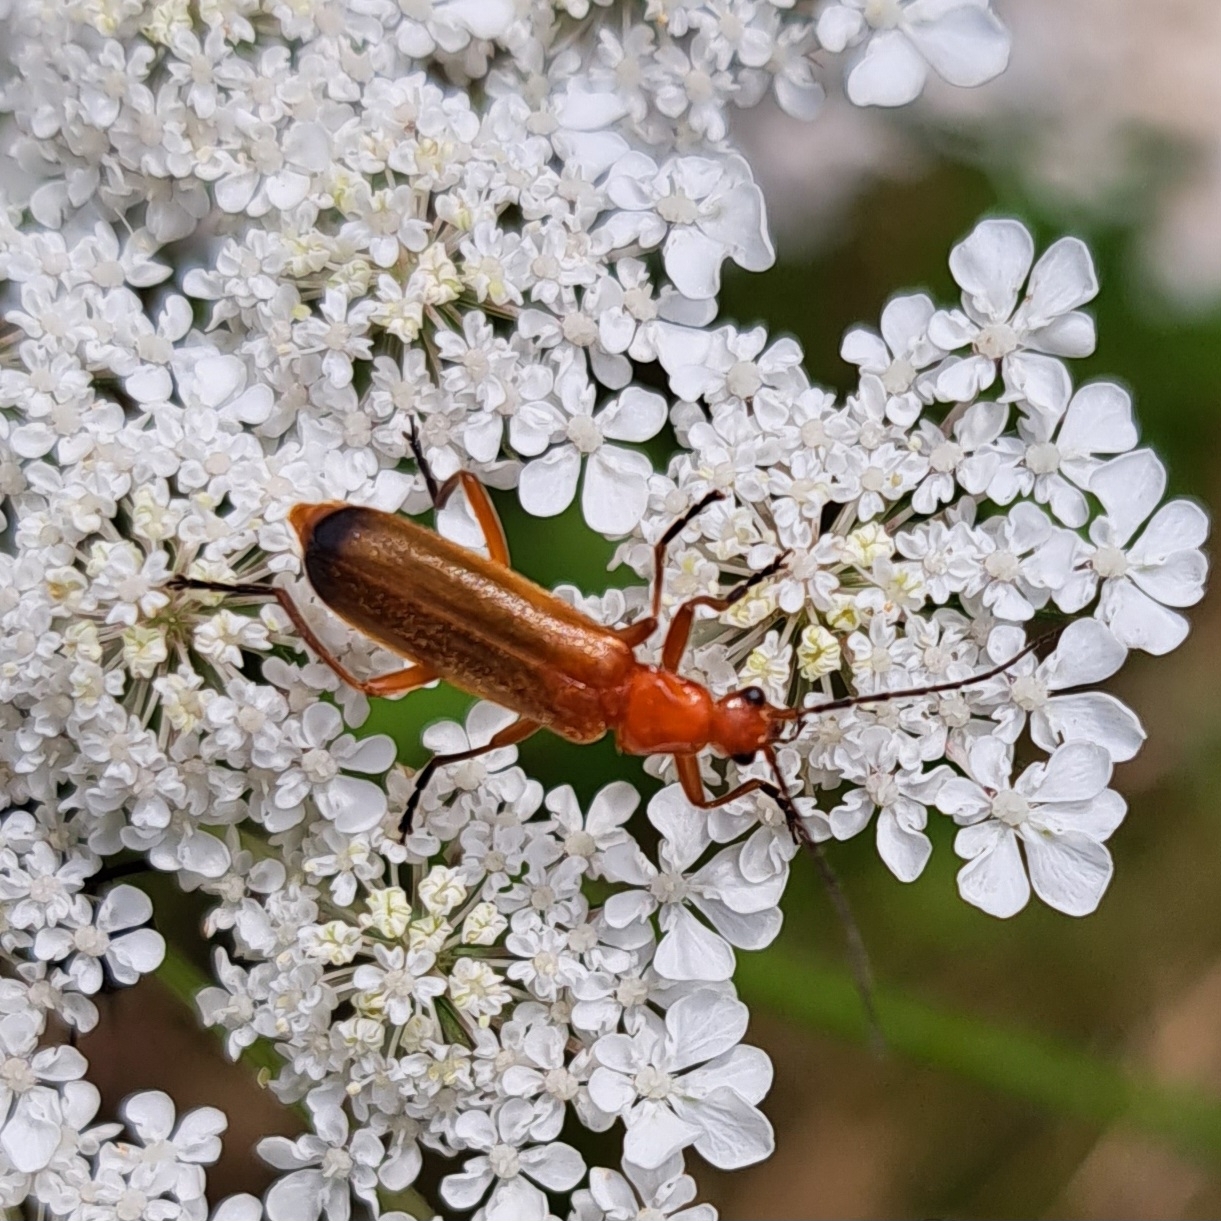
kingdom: Animalia
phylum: Arthropoda
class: Insecta
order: Coleoptera
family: Cantharidae
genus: Rhagonycha
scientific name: Rhagonycha fulva
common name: Common red soldier beetle
